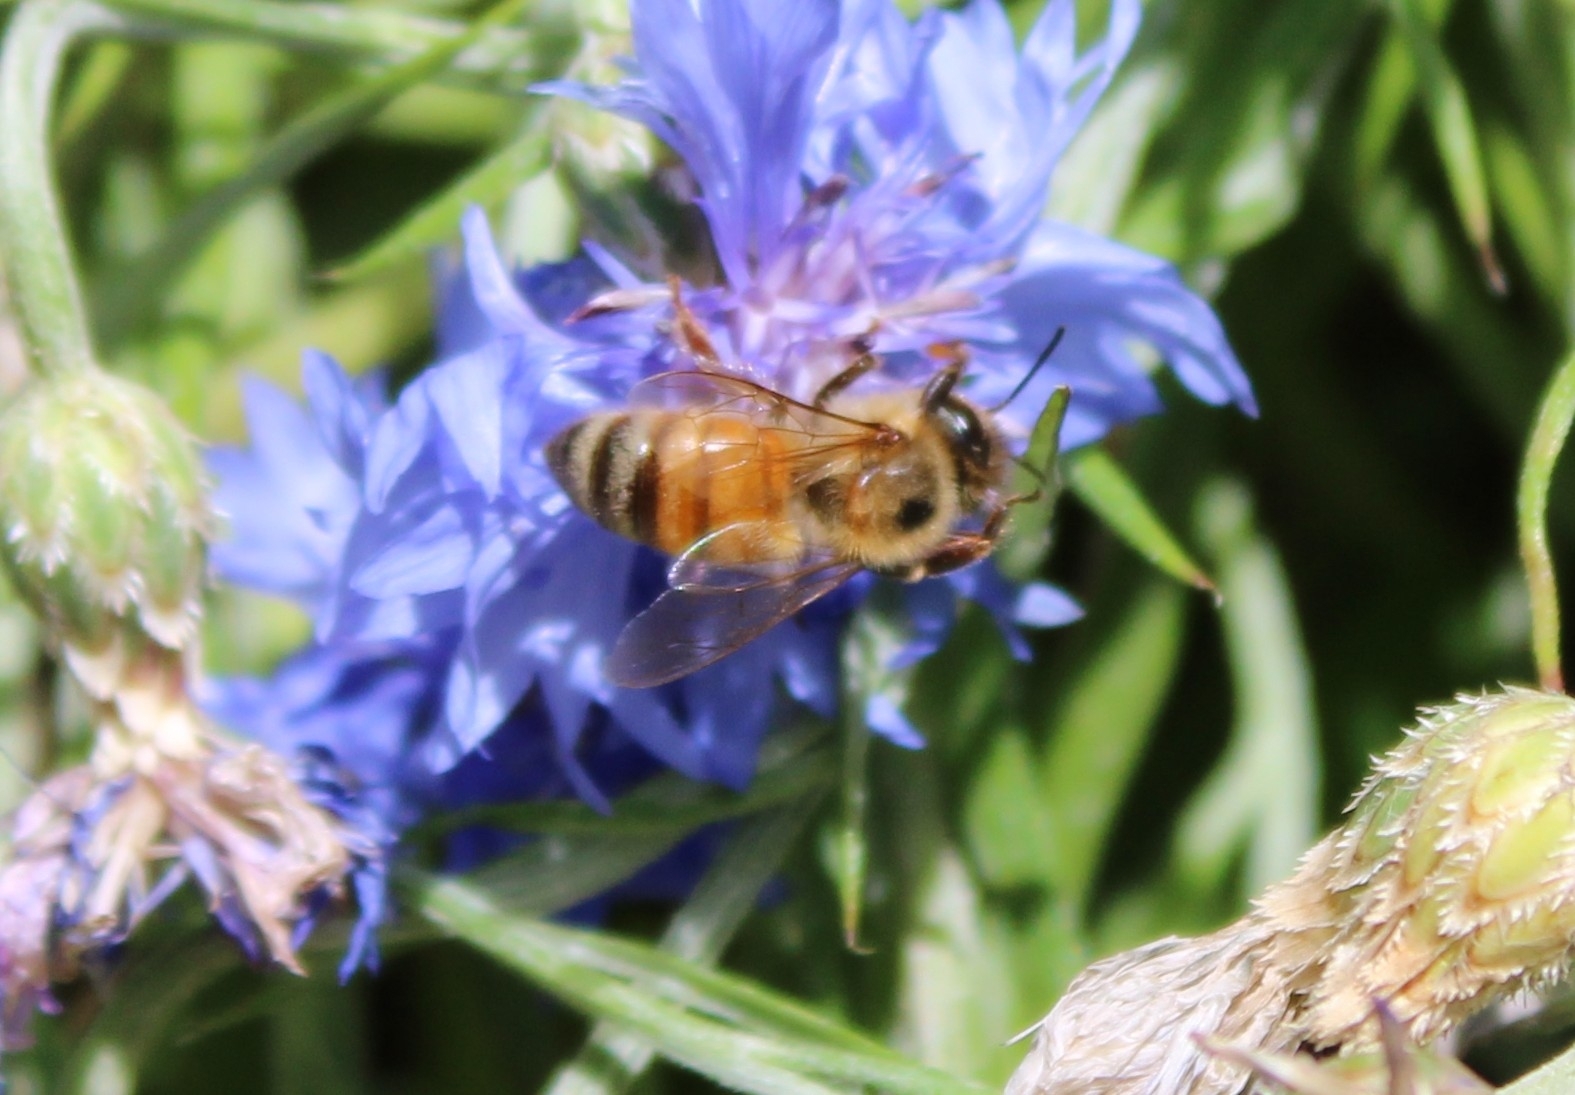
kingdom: Animalia
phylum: Arthropoda
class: Insecta
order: Hymenoptera
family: Apidae
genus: Apis
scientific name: Apis mellifera
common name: Honey bee
